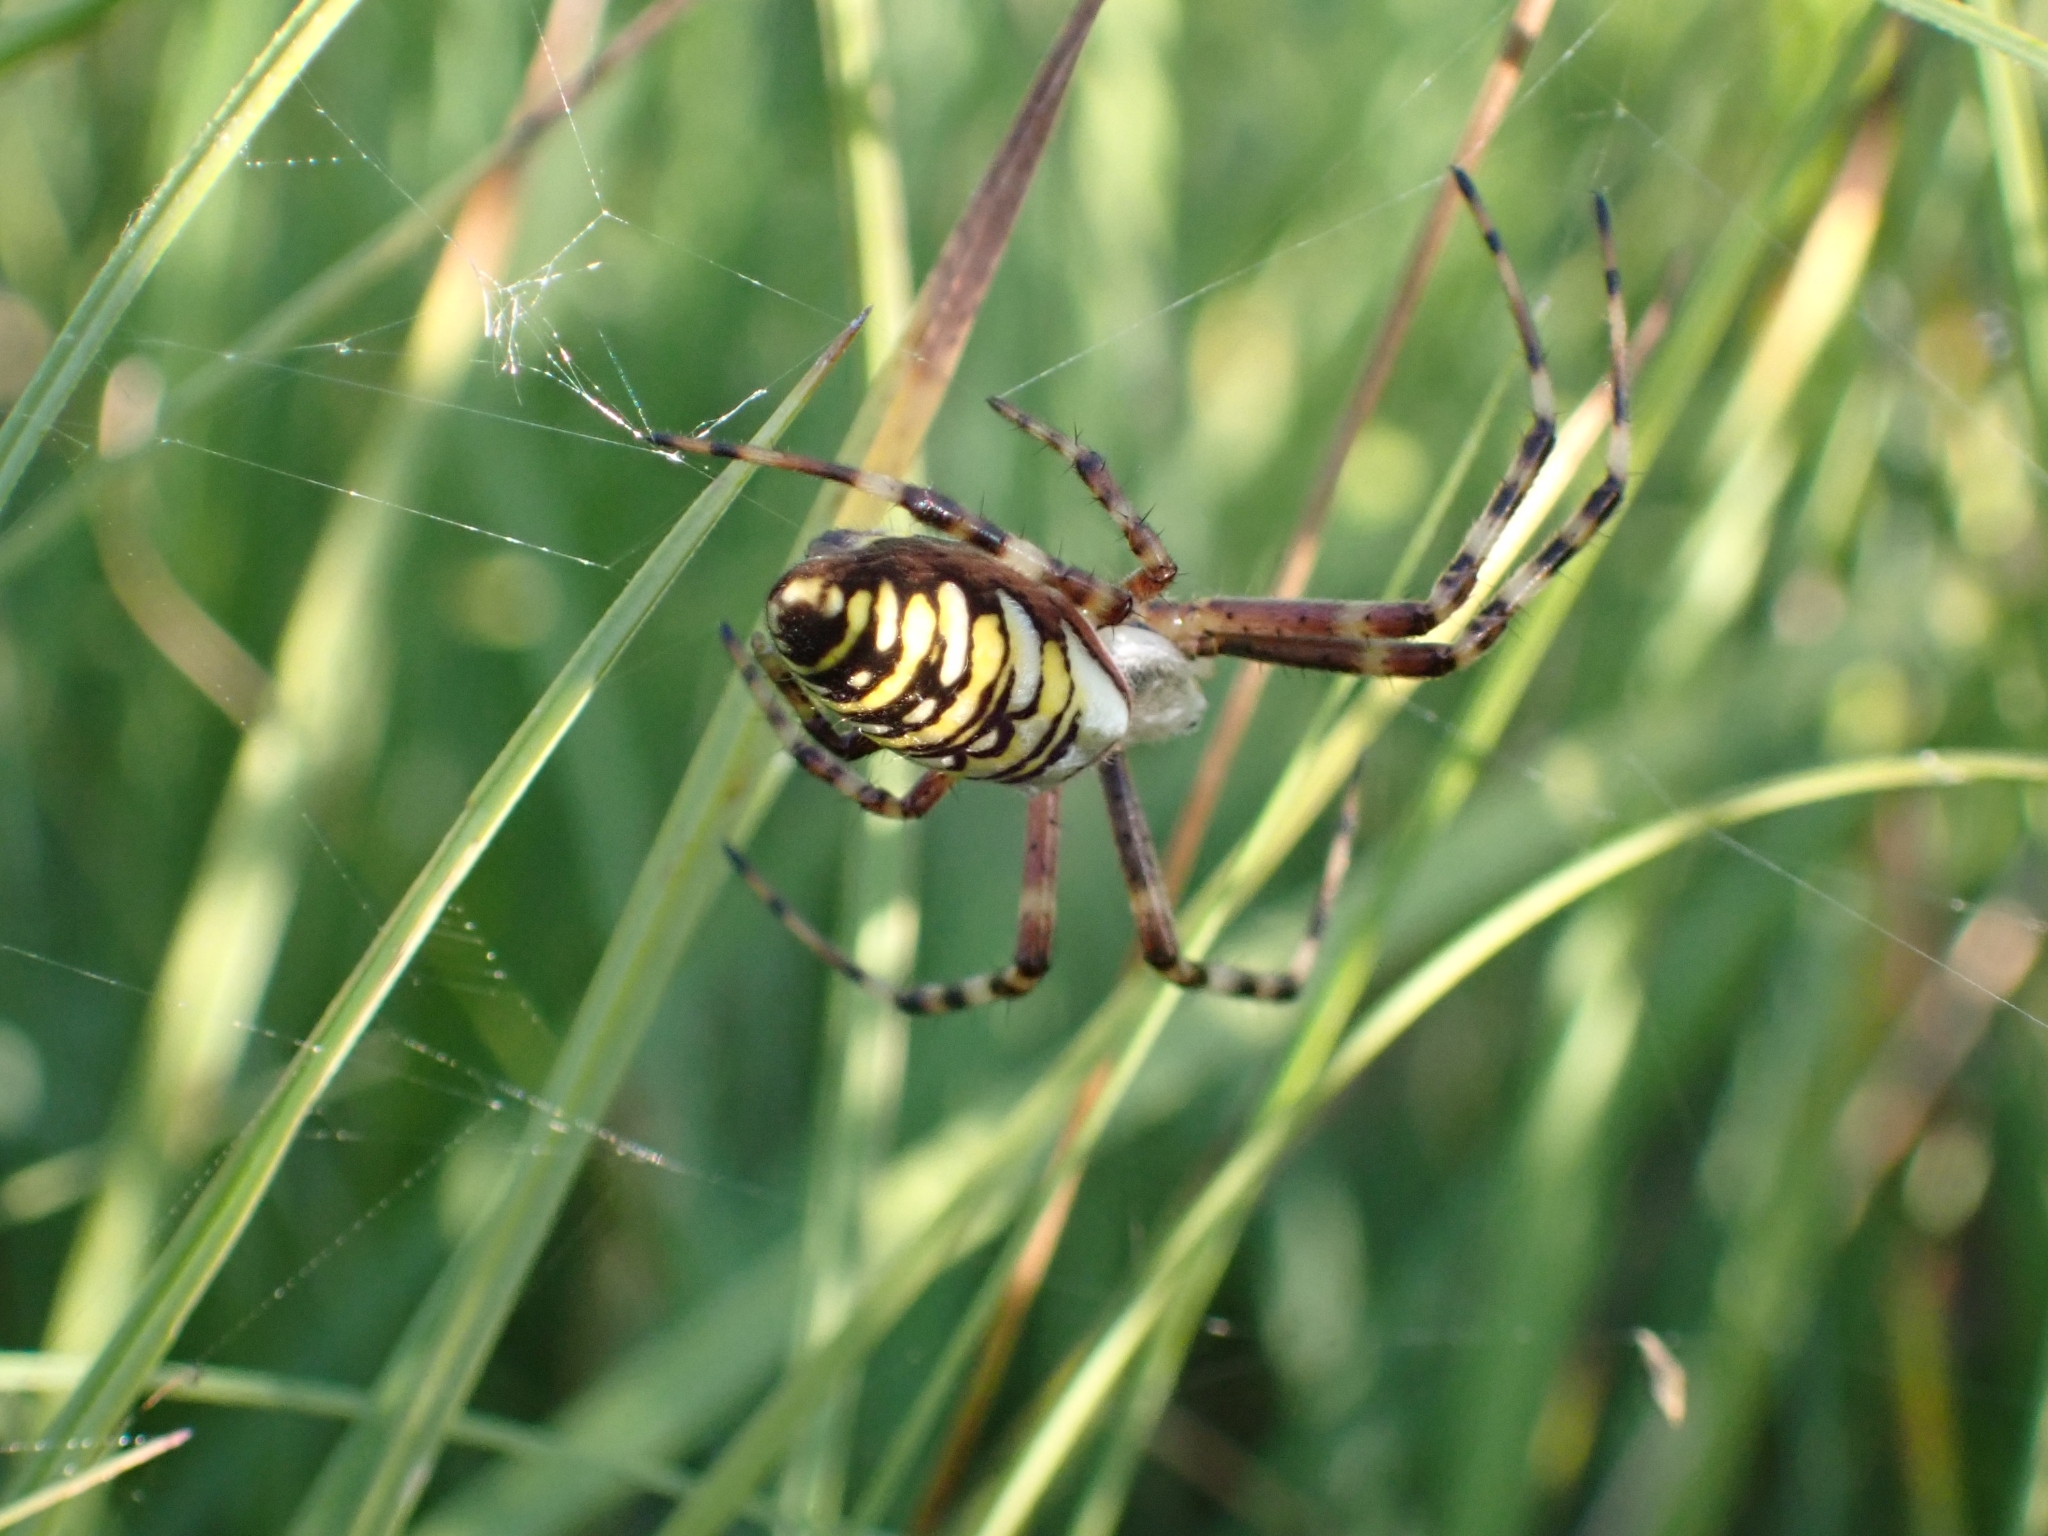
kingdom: Animalia
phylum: Arthropoda
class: Arachnida
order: Araneae
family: Araneidae
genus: Argiope
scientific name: Argiope bruennichi
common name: Wasp spider
